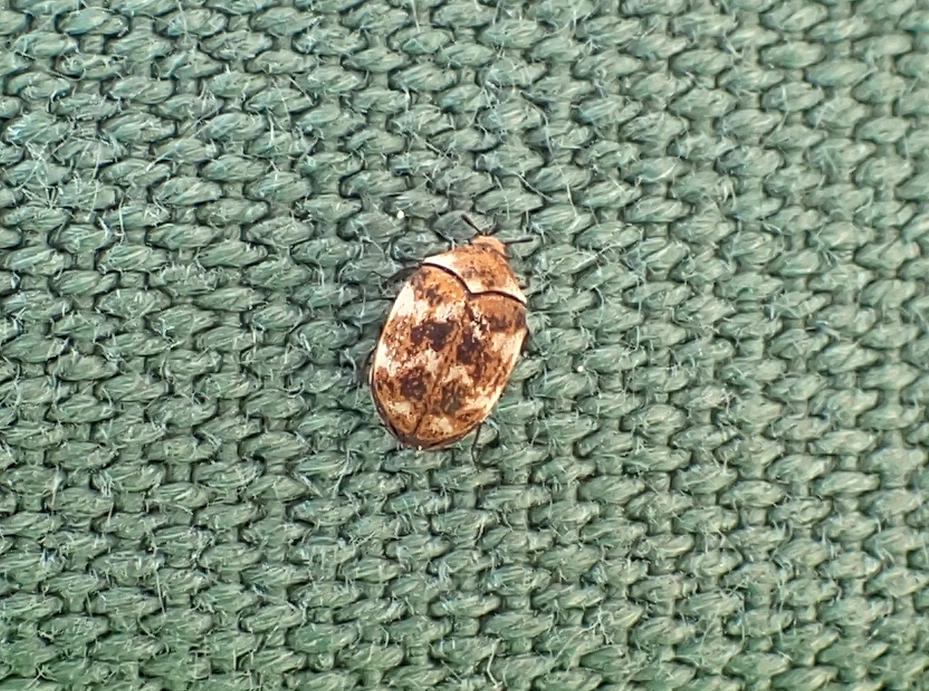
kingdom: Animalia
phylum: Arthropoda
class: Insecta
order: Coleoptera
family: Dermestidae
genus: Anthrenus
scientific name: Anthrenus verbasci
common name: Varied carpet beetle
